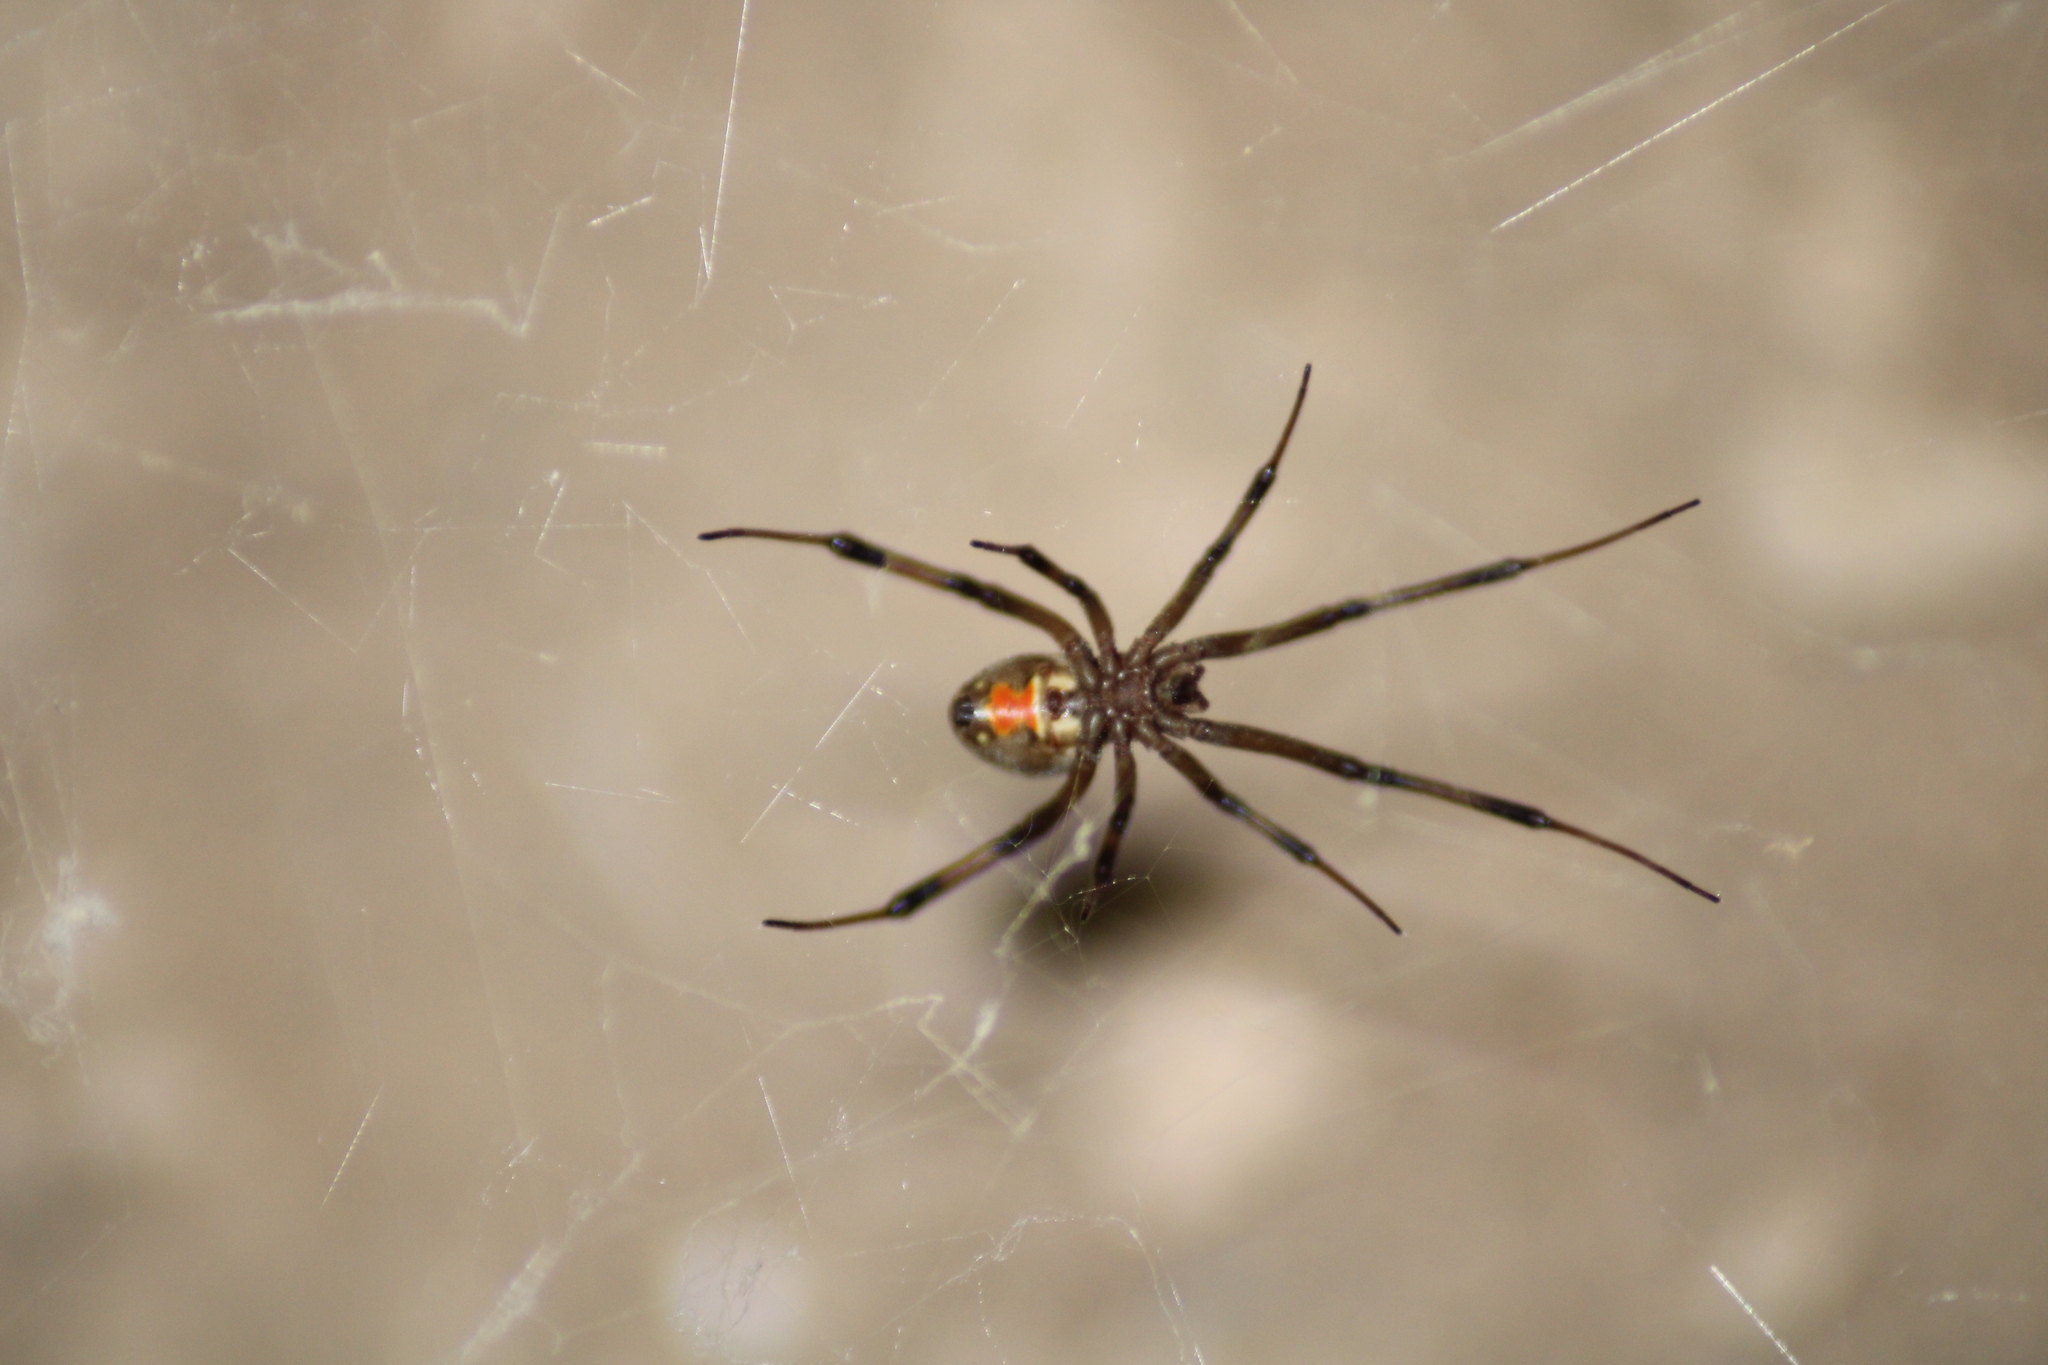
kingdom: Animalia
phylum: Arthropoda
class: Arachnida
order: Araneae
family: Theridiidae
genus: Latrodectus
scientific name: Latrodectus geometricus
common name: Brown widow spider
